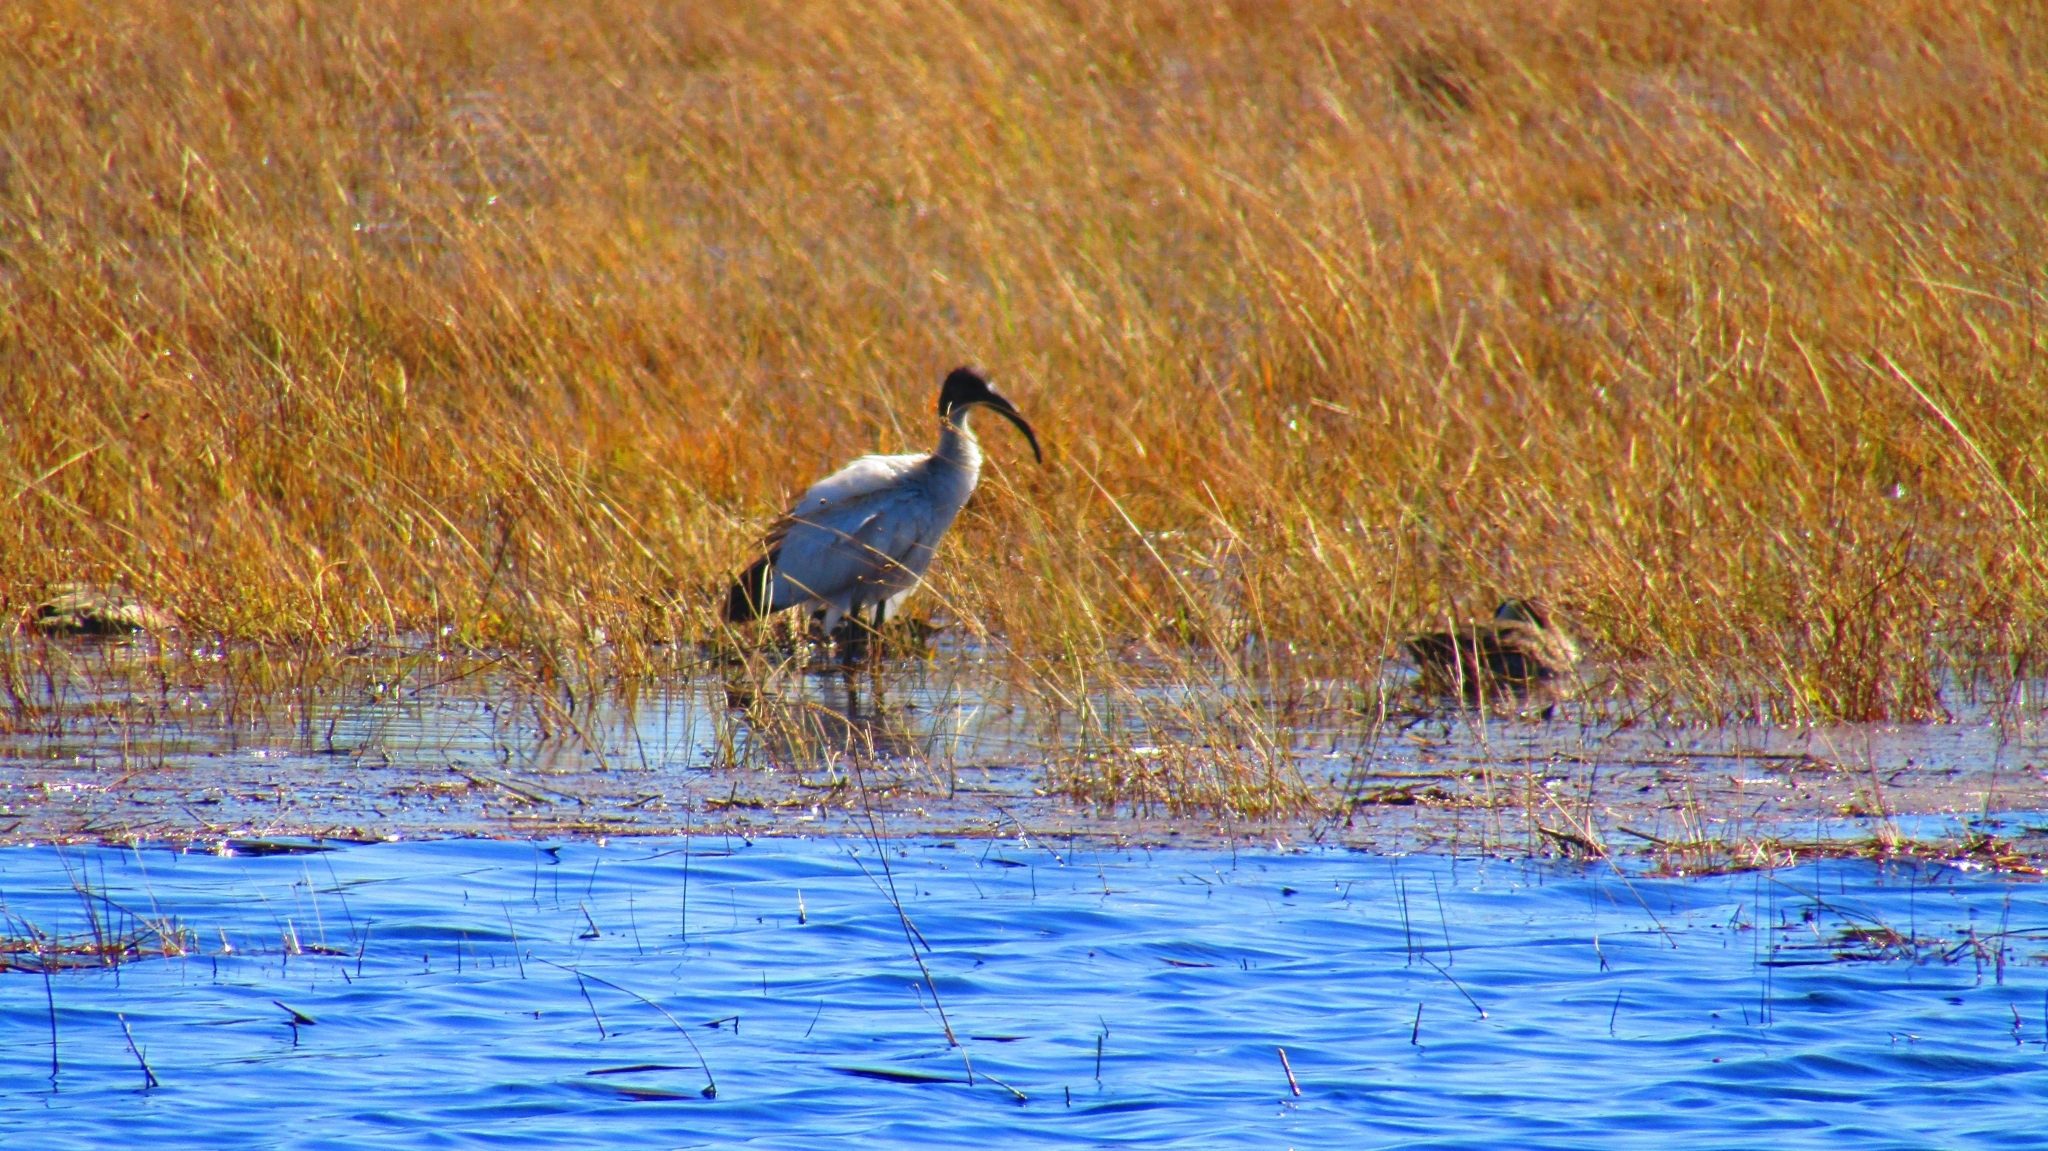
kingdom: Animalia
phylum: Chordata
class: Aves
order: Pelecaniformes
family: Threskiornithidae
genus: Threskiornis
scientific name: Threskiornis aethiopicus
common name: Sacred ibis
